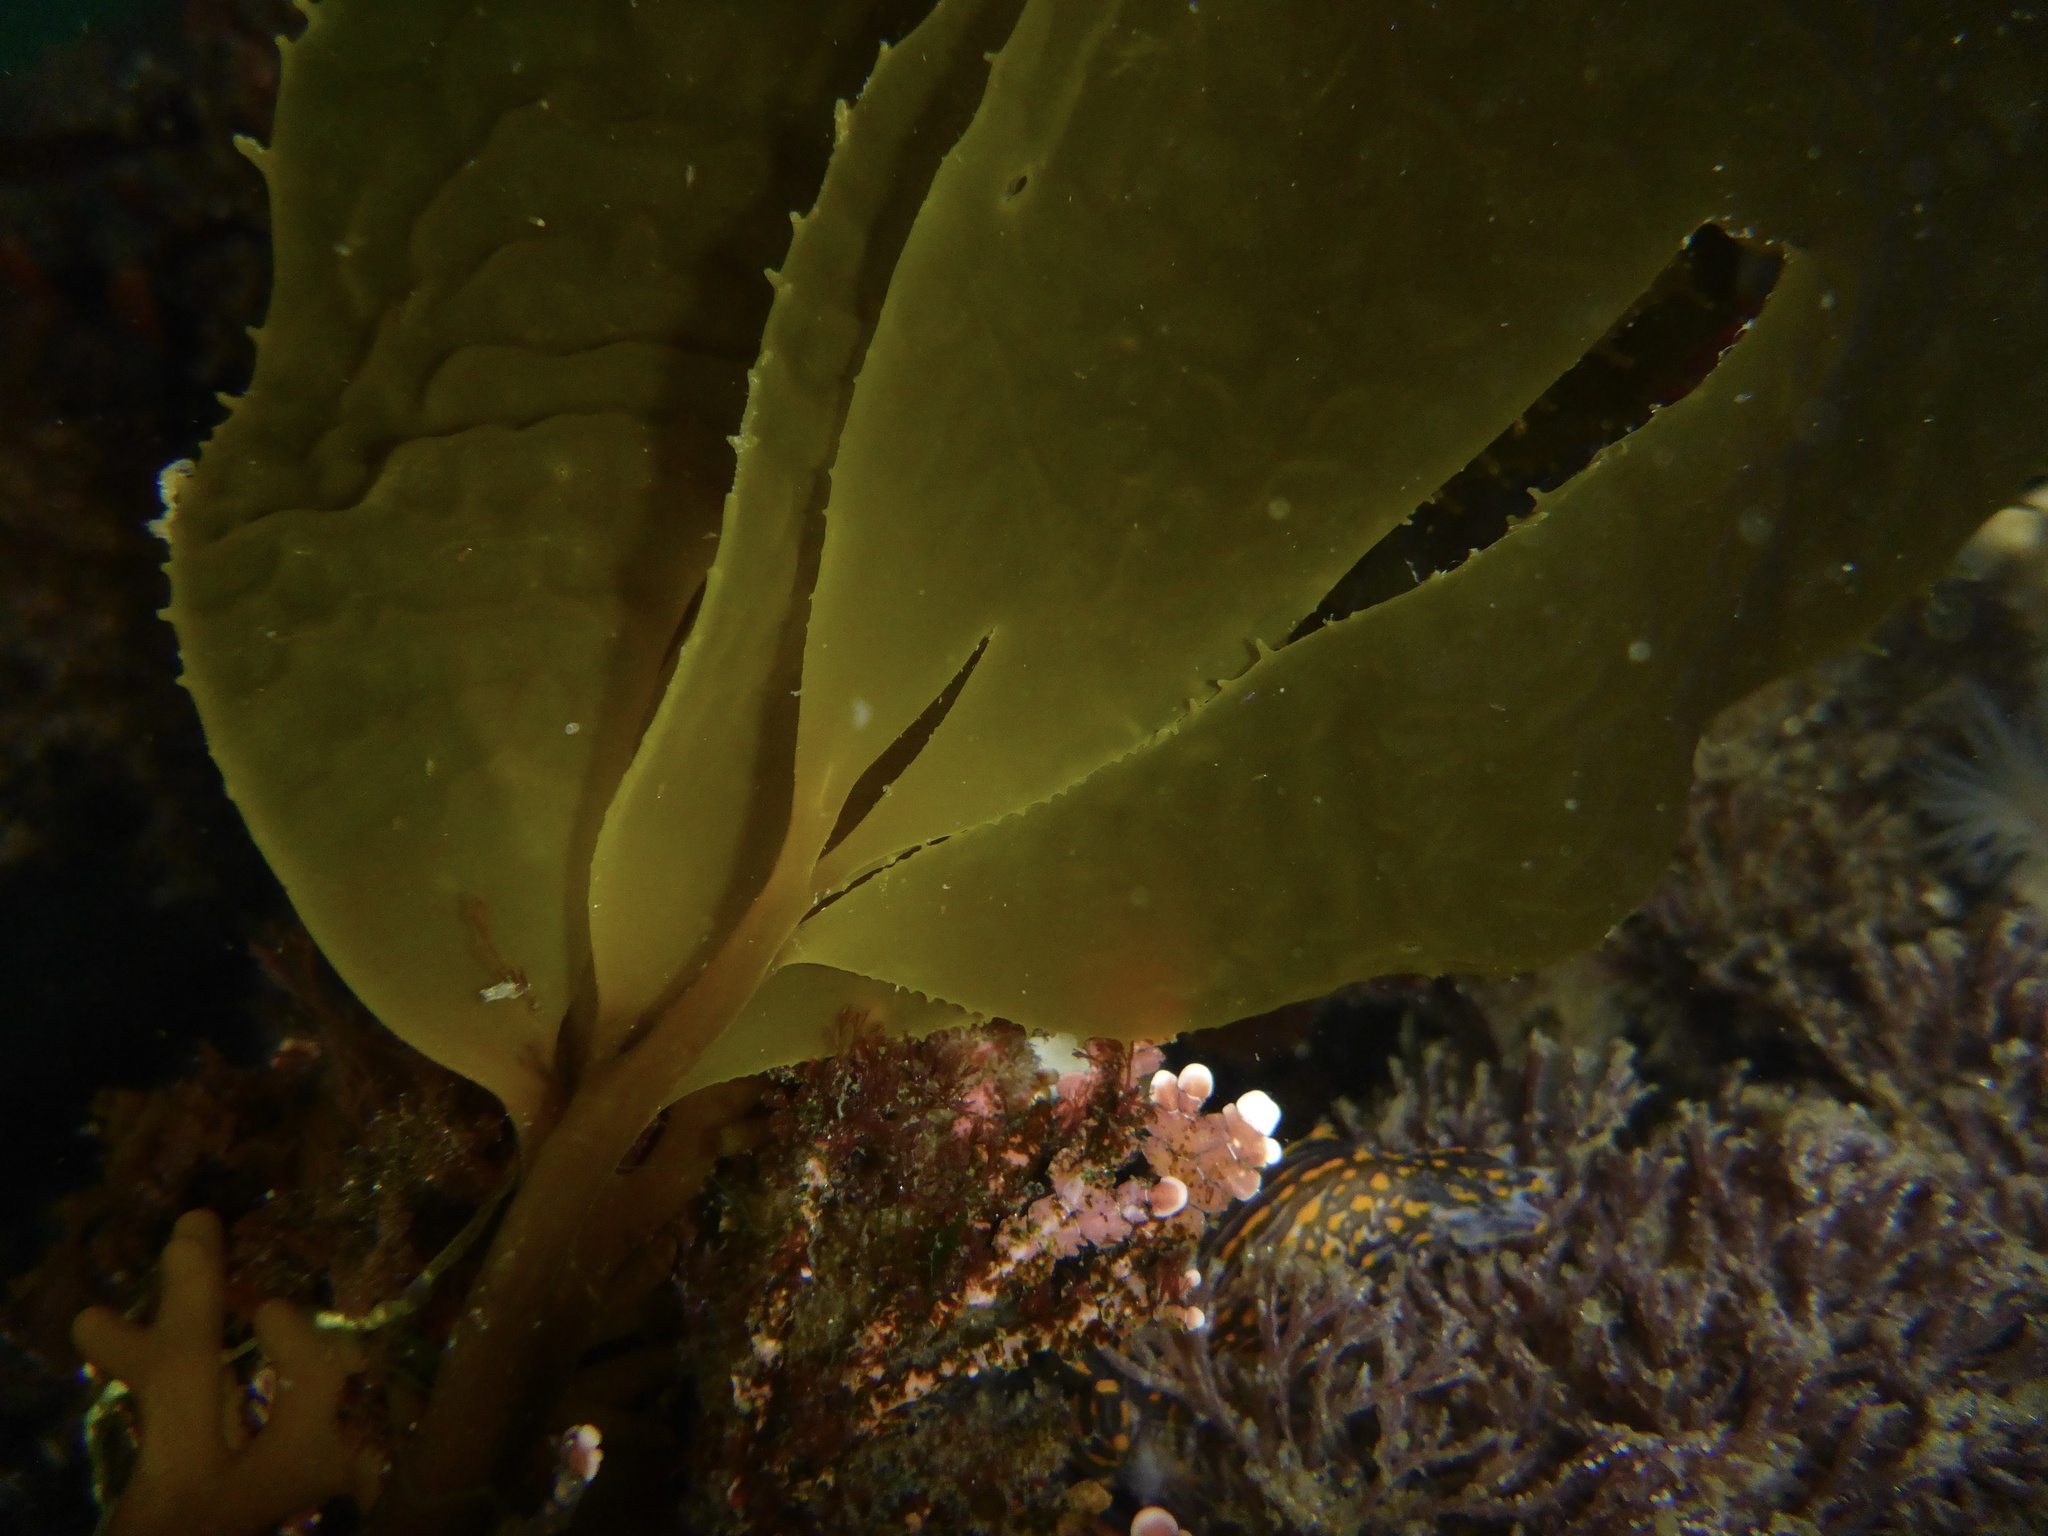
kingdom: Chromista
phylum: Ochrophyta
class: Phaeophyceae
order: Laminariales
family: Laminariaceae
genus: Macrocystis
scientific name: Macrocystis pyrifera
